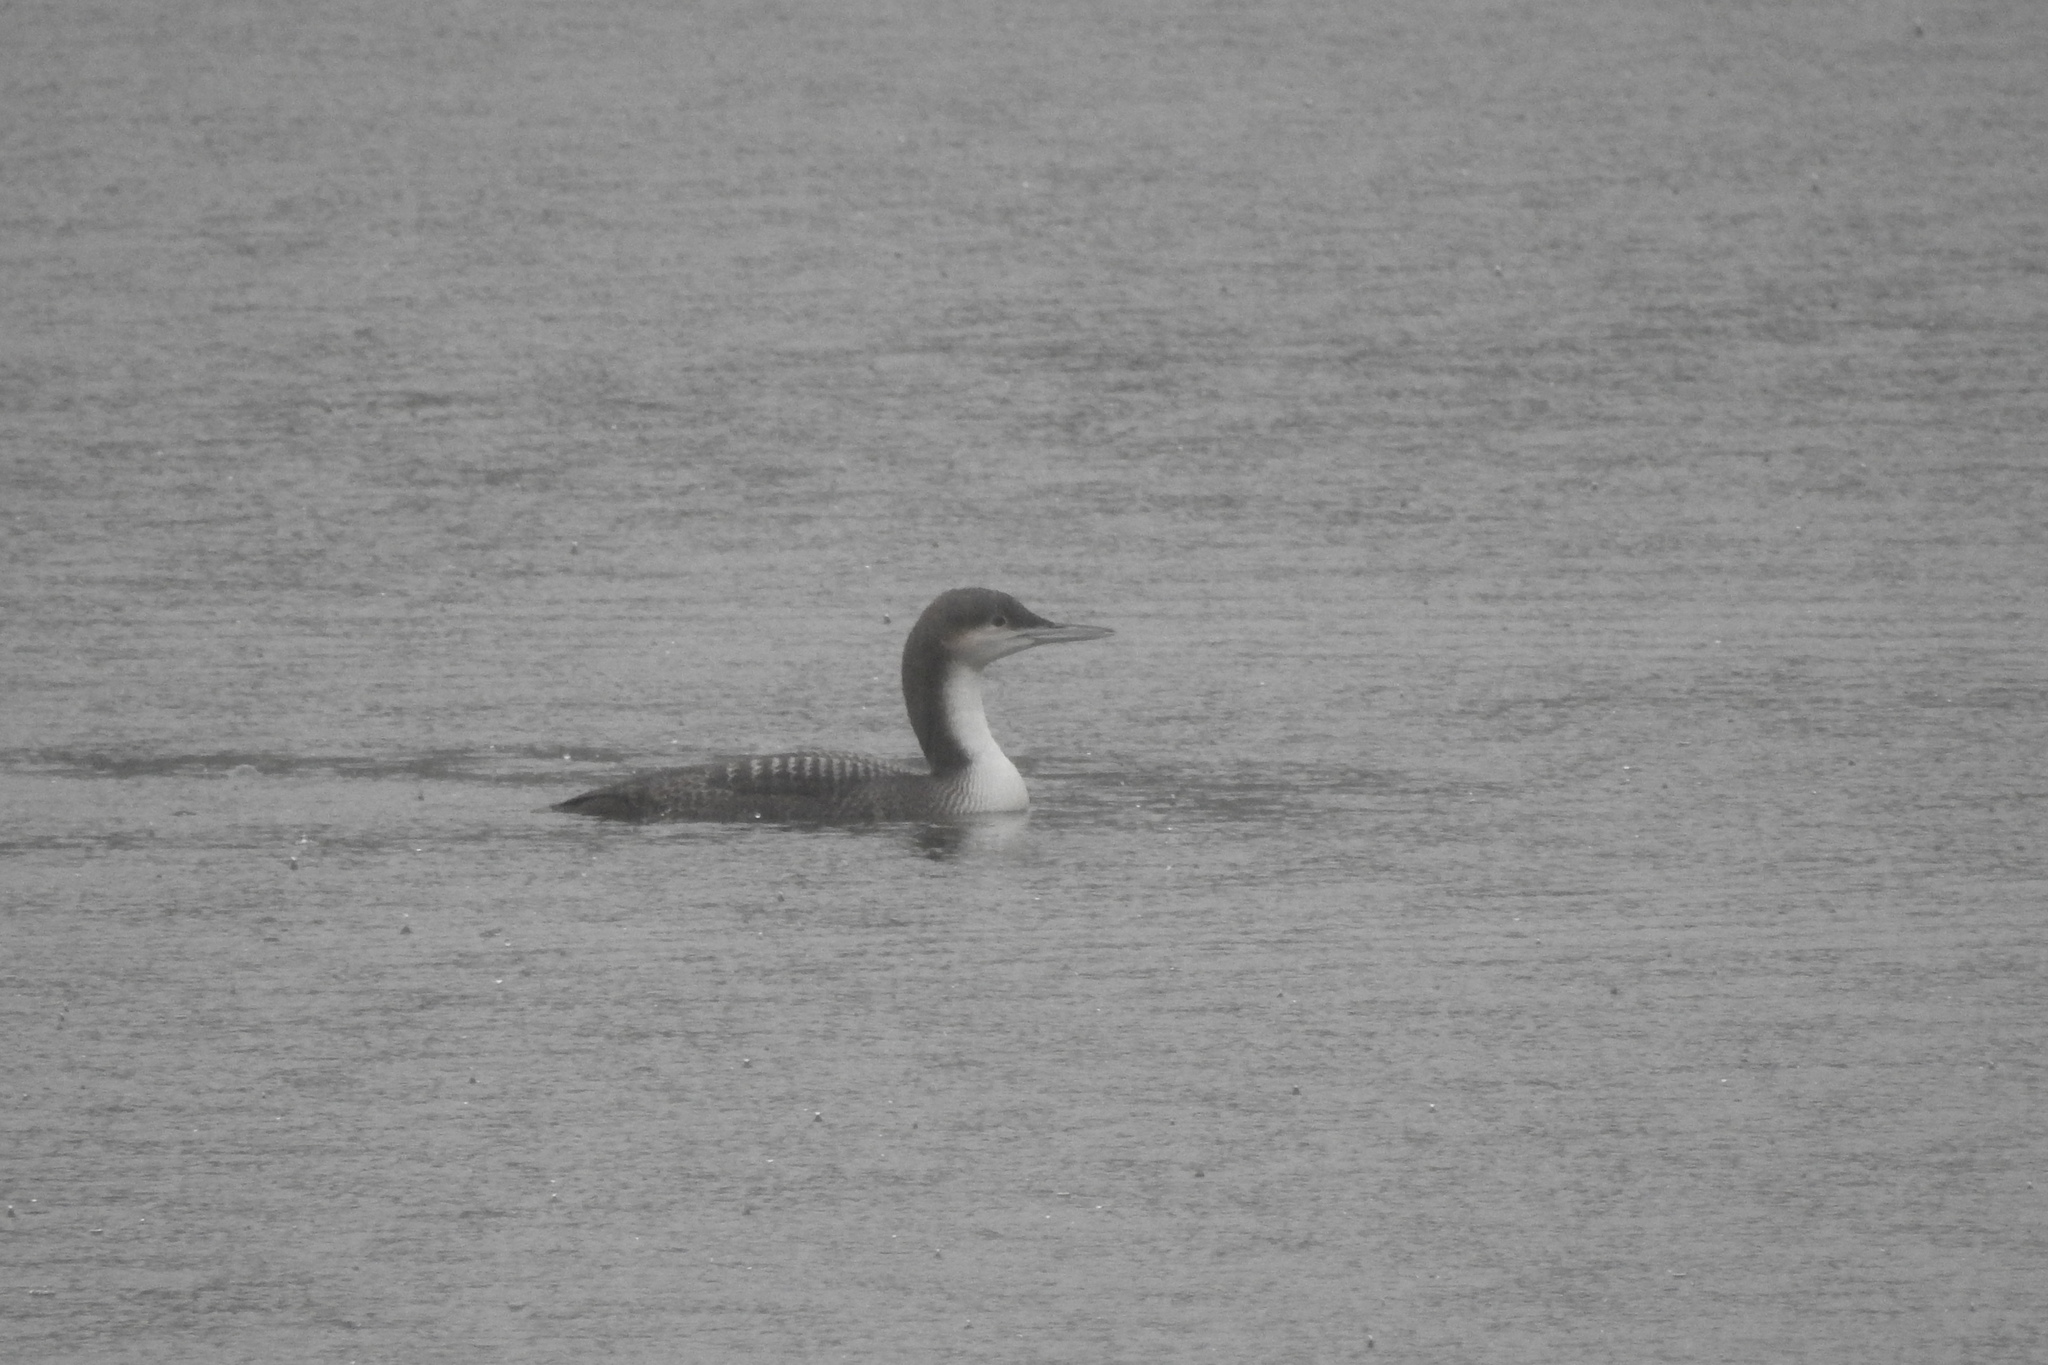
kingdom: Animalia
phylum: Chordata
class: Aves
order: Gaviiformes
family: Gaviidae
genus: Gavia
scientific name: Gavia pacifica
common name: Pacific loon
